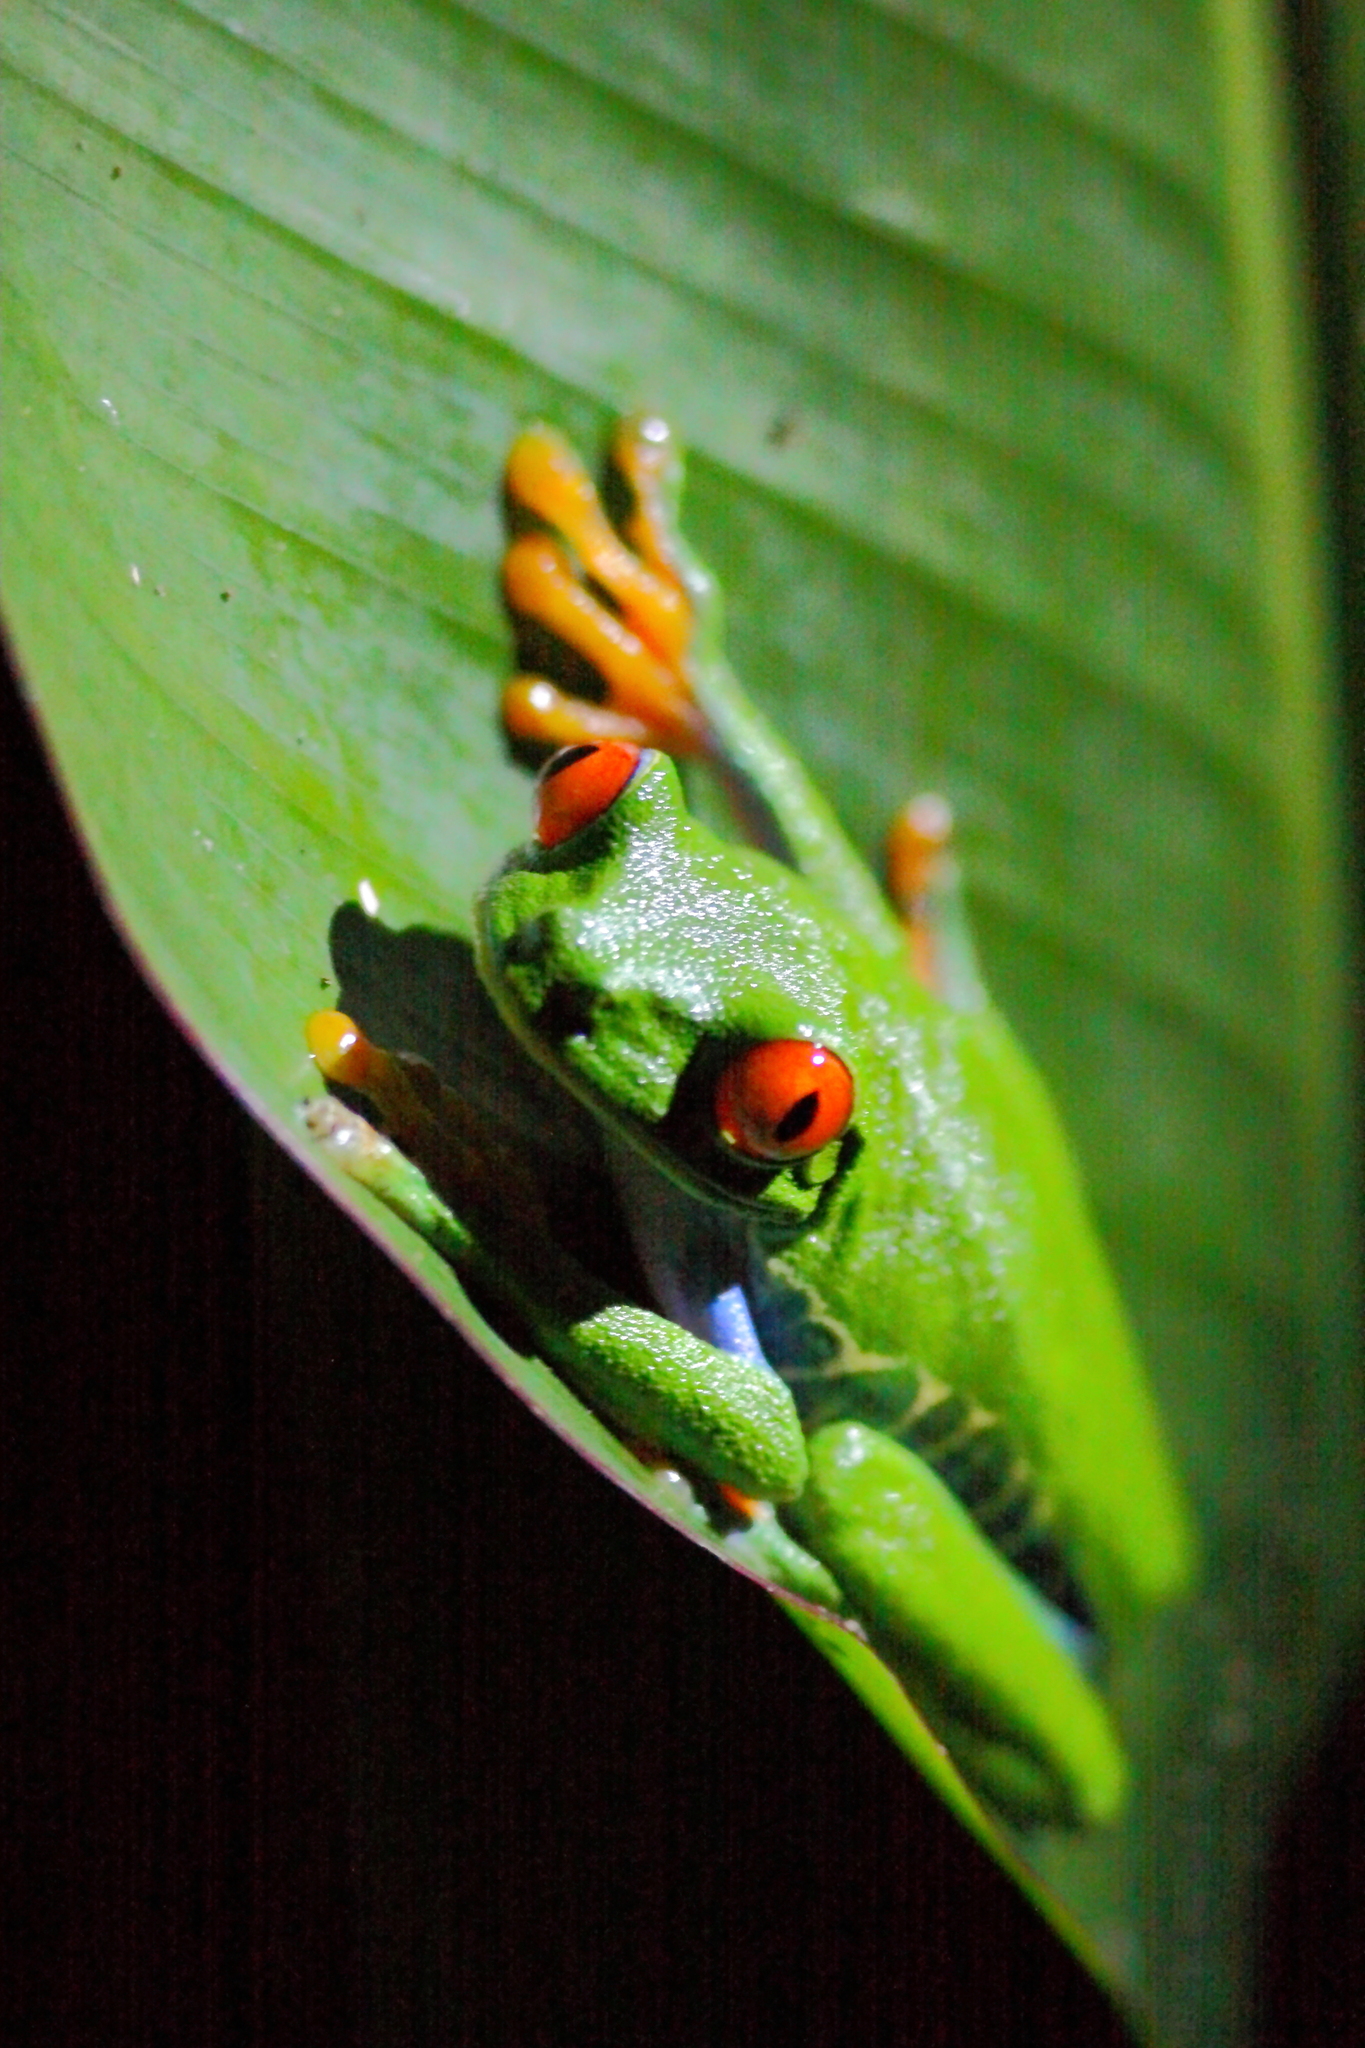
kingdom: Animalia
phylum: Chordata
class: Amphibia
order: Anura
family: Phyllomedusidae
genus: Agalychnis
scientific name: Agalychnis callidryas
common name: Red-eyed treefrog
